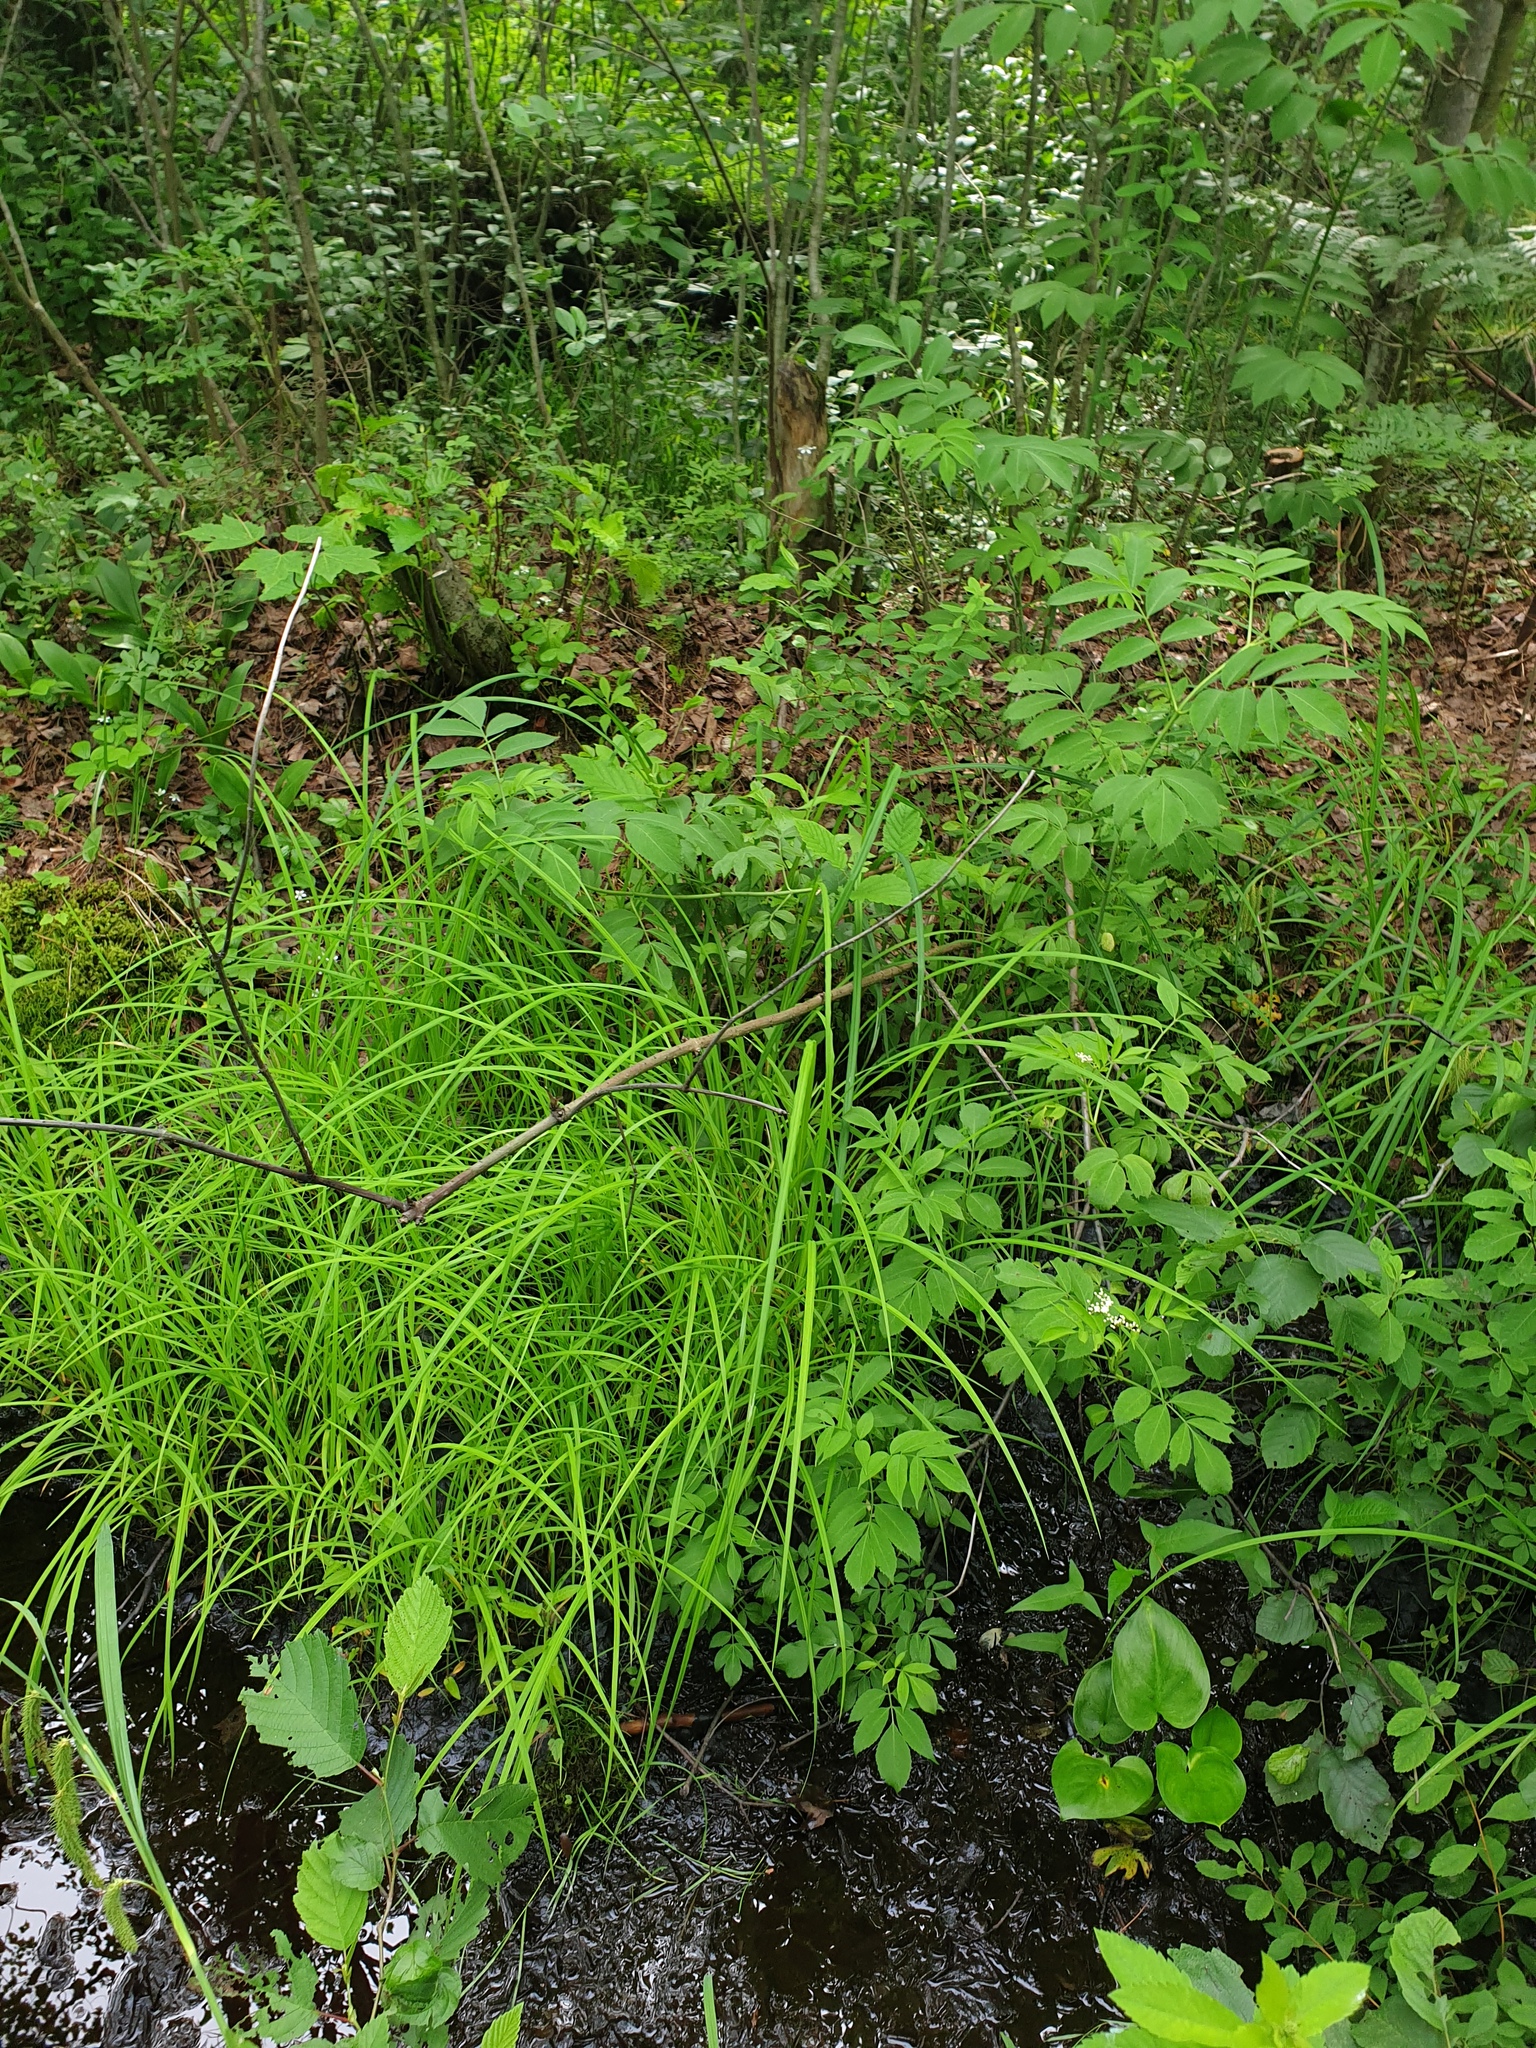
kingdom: Plantae
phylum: Tracheophyta
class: Magnoliopsida
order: Dipsacales
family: Viburnaceae
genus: Sambucus
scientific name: Sambucus canadensis
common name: American elder
